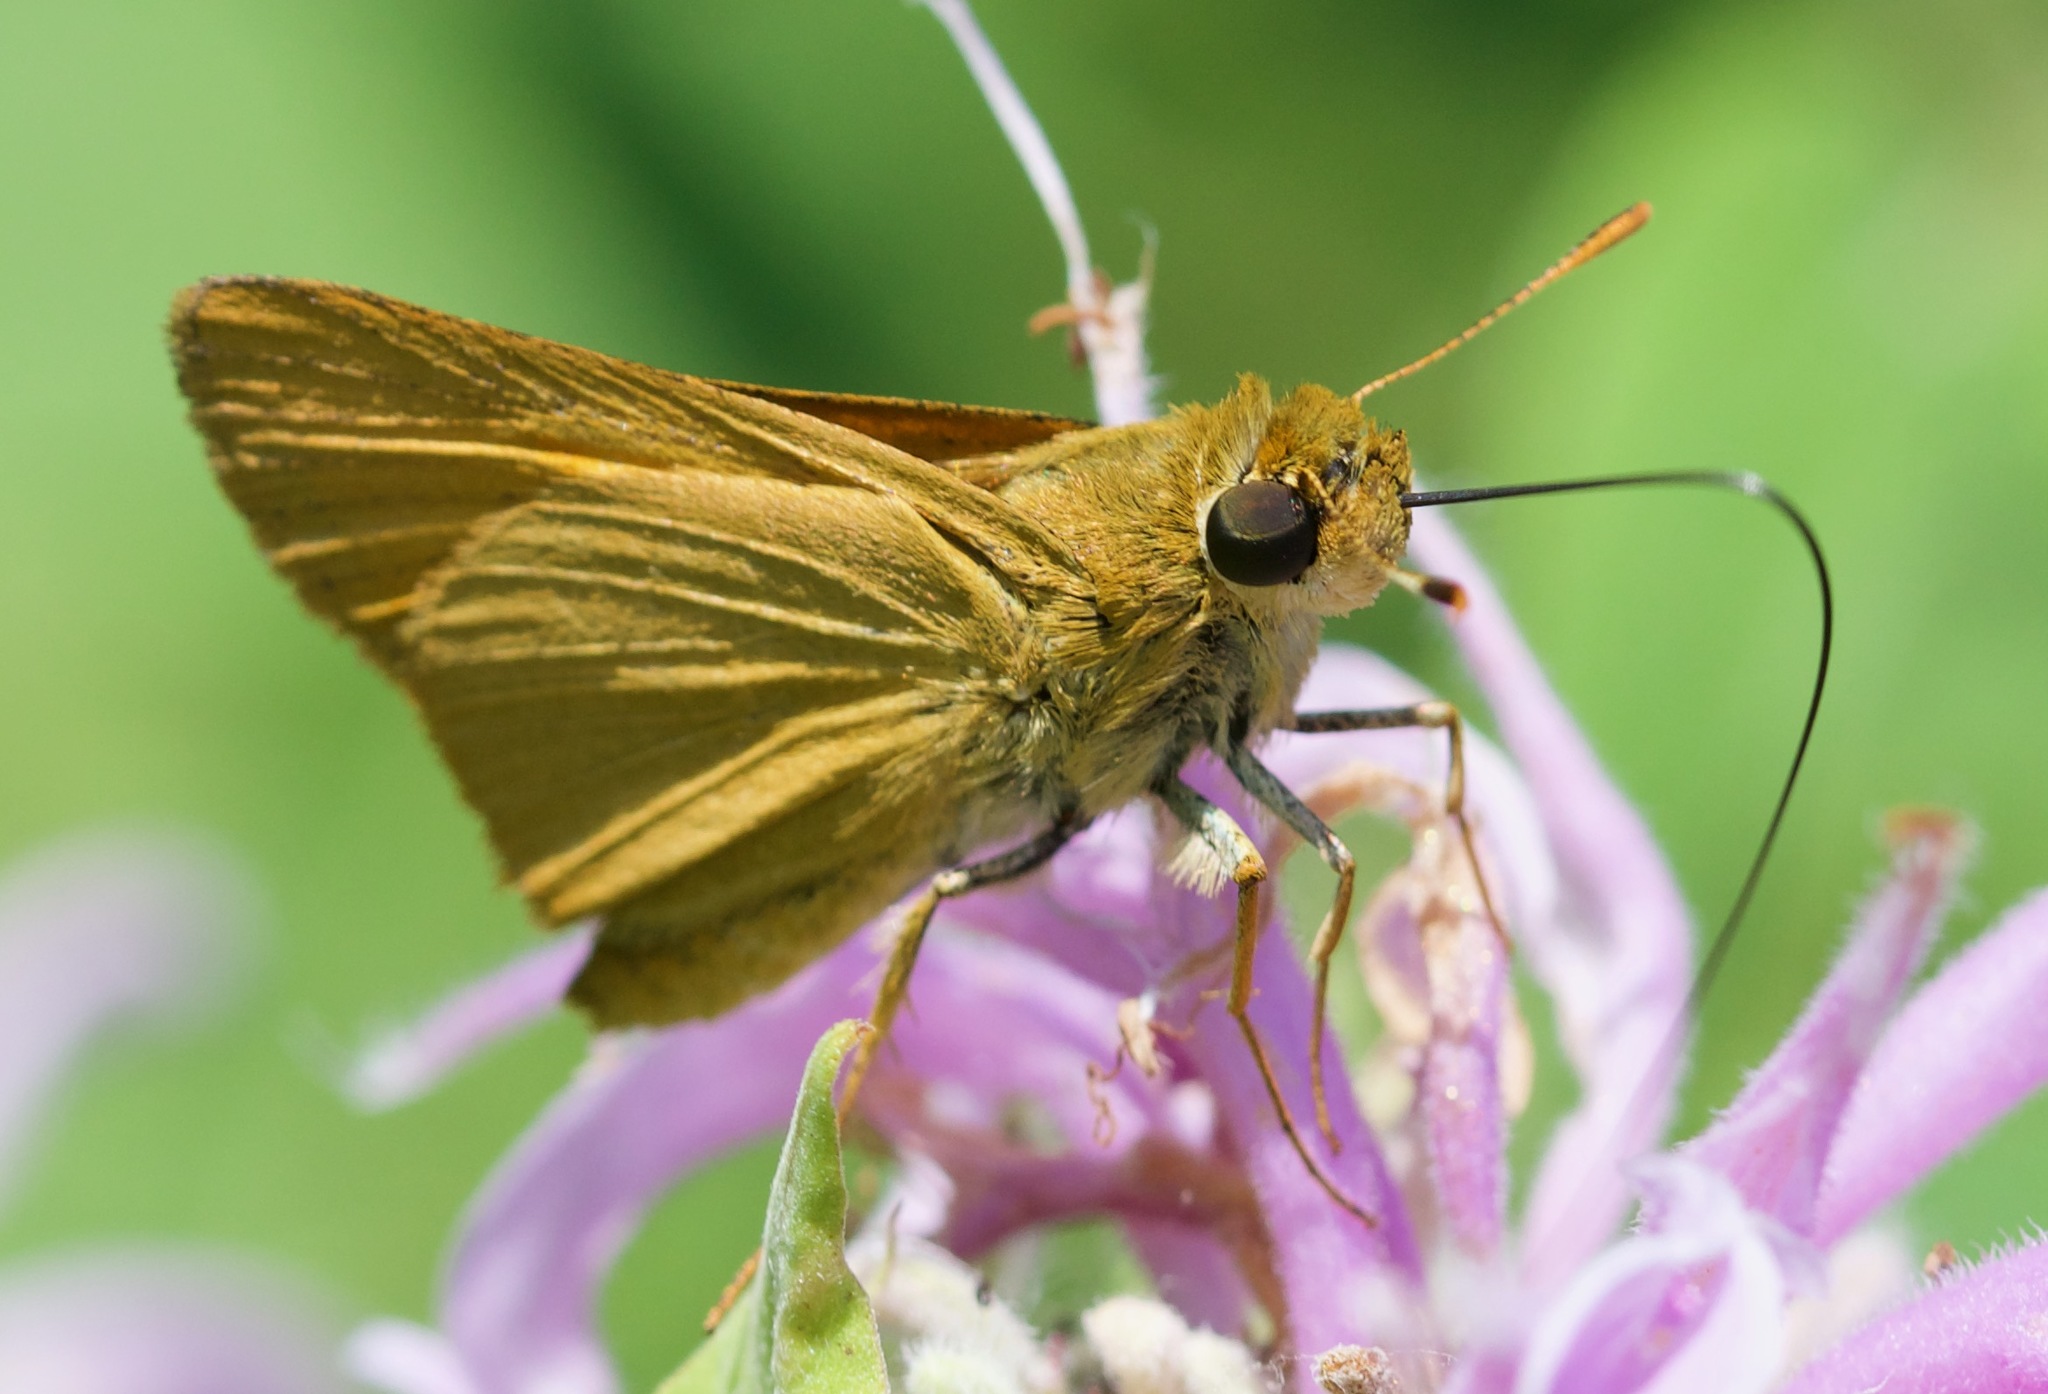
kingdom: Animalia
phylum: Arthropoda
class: Insecta
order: Lepidoptera
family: Hesperiidae
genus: Atrytone
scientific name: Atrytone delaware
